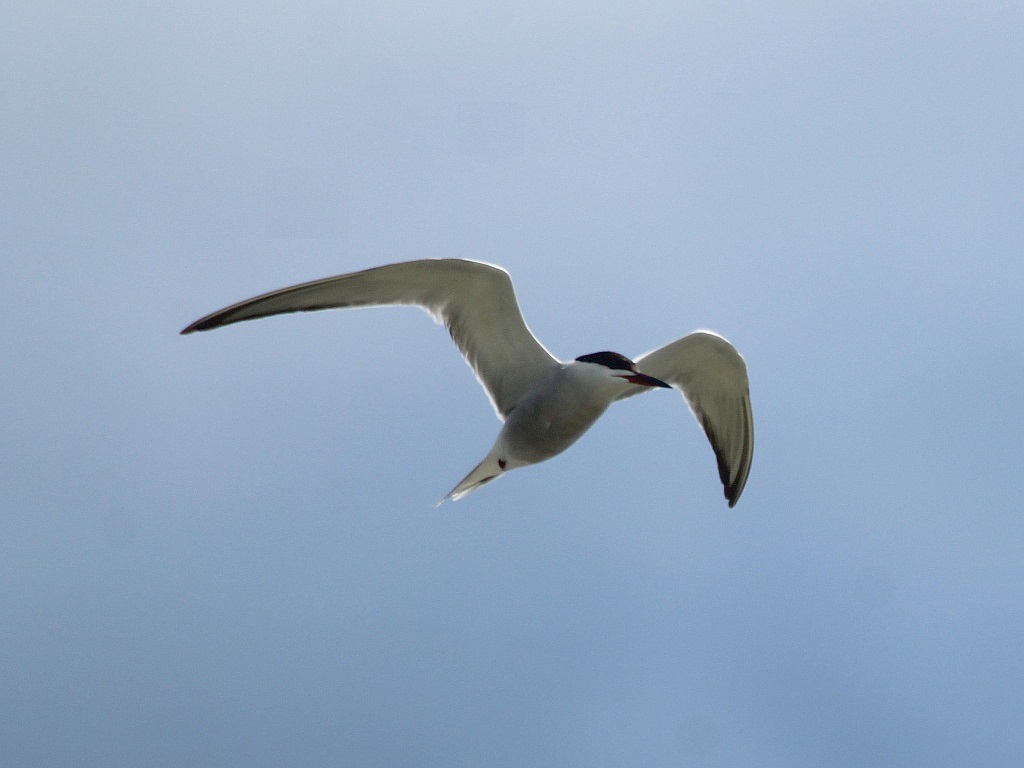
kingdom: Animalia
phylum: Chordata
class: Aves
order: Charadriiformes
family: Laridae
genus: Sterna
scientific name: Sterna hirundo
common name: Common tern
